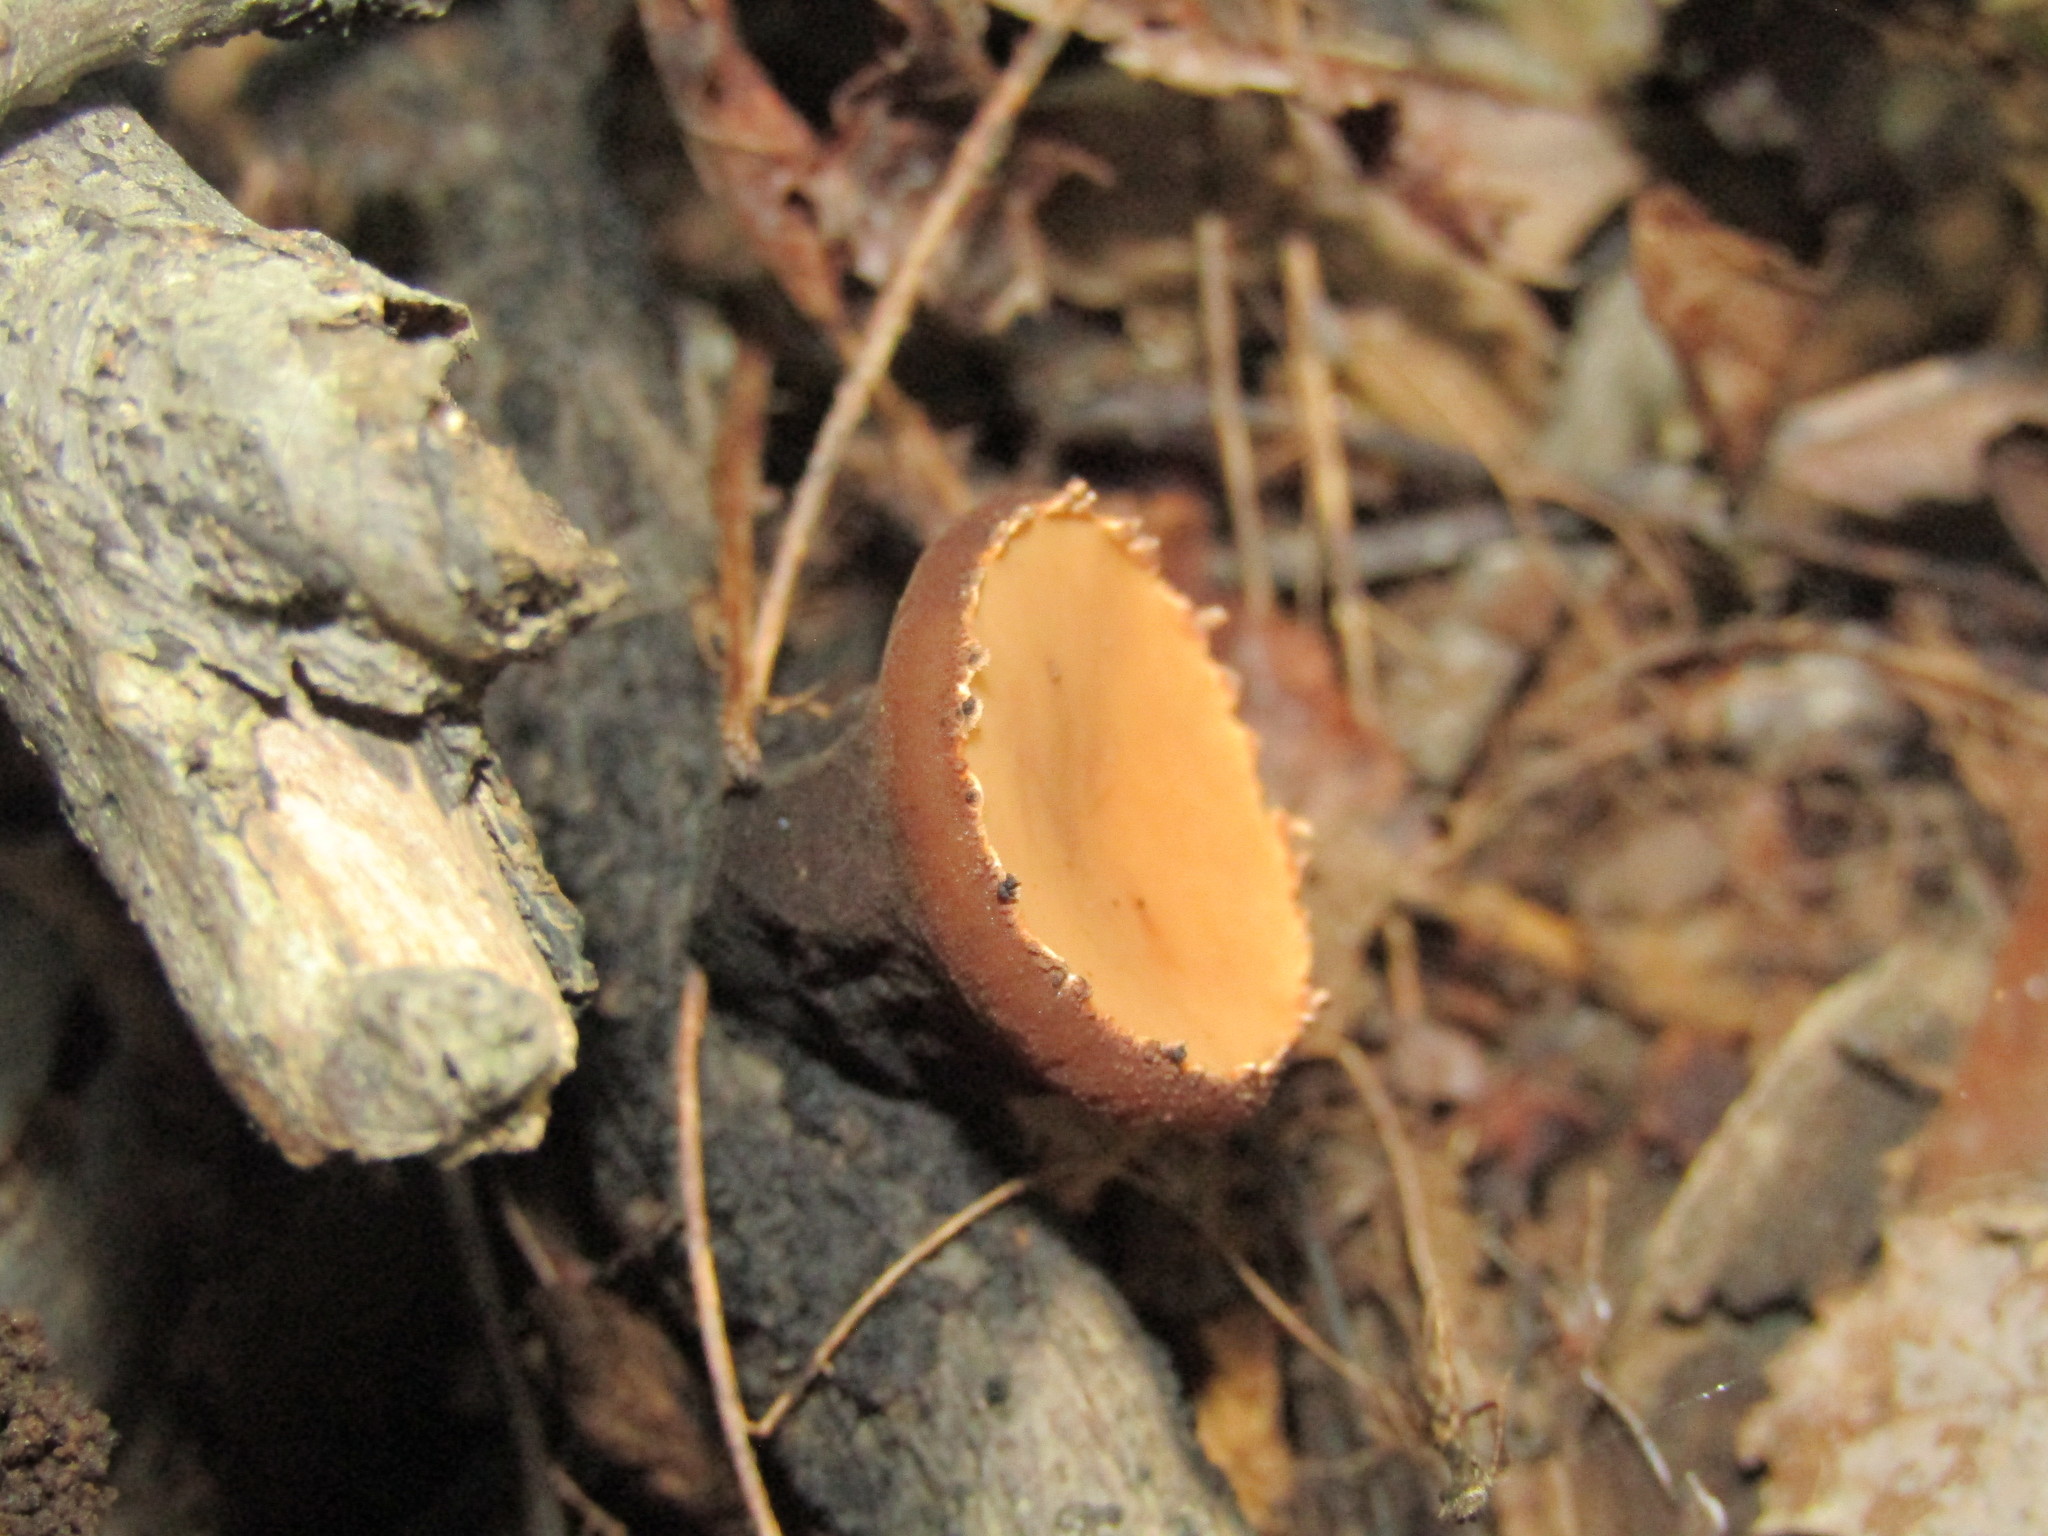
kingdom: Fungi
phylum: Ascomycota
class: Pezizomycetes
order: Pezizales
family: Sarcosomataceae
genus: Galiella
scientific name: Galiella rufa
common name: Hairy rubber cup
